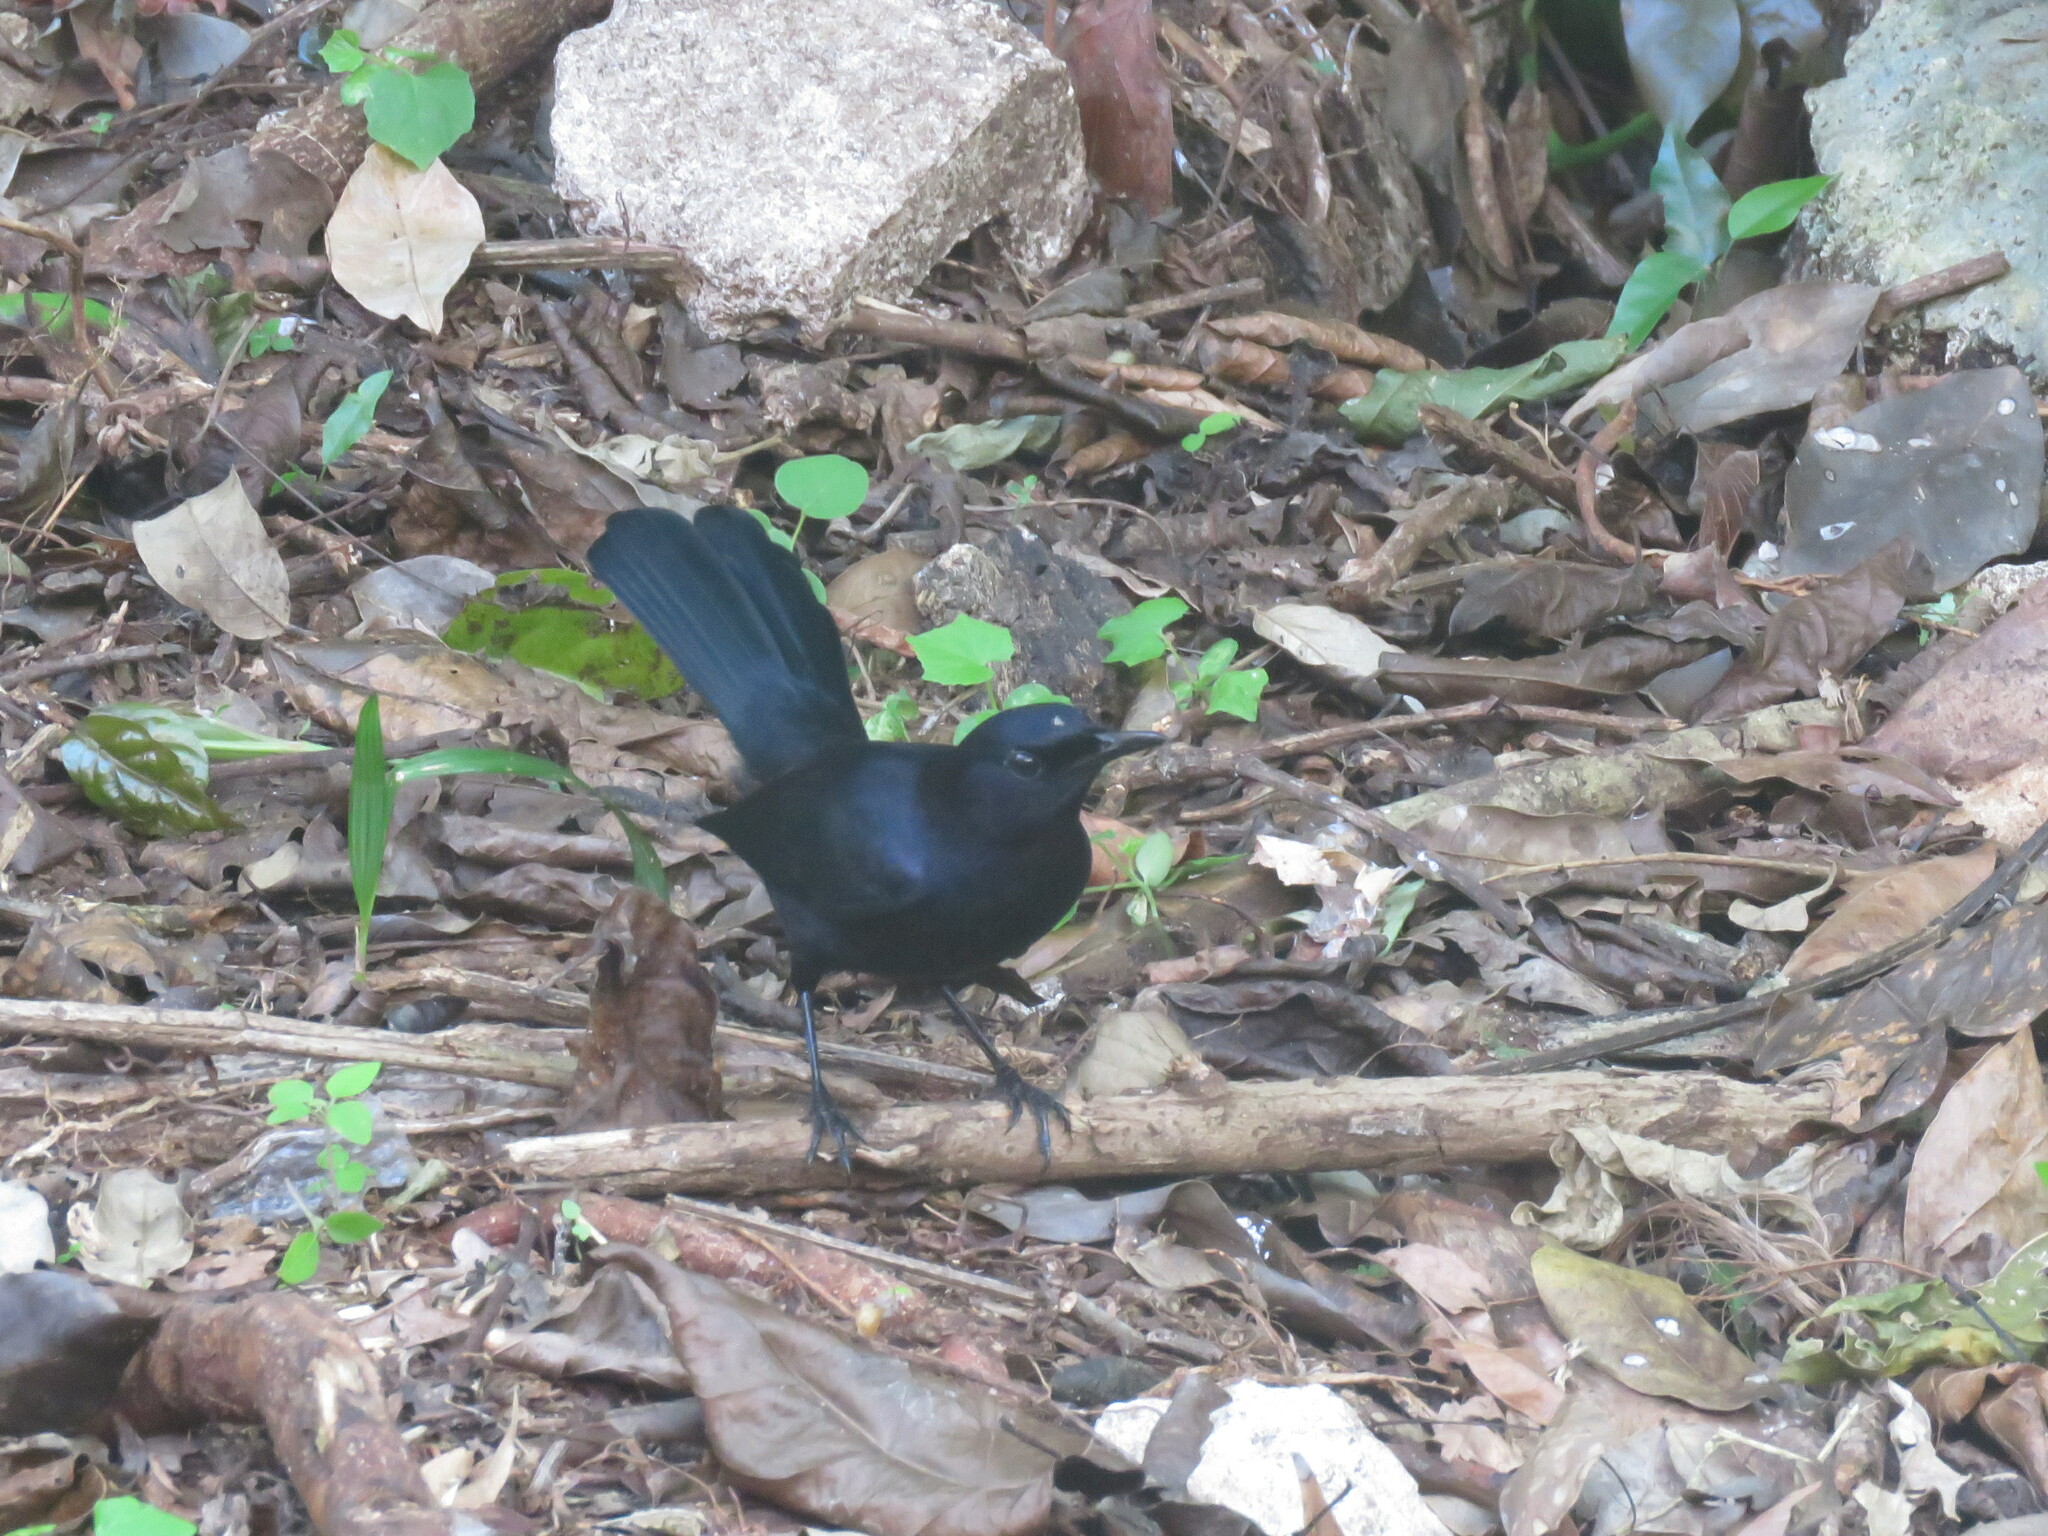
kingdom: Animalia
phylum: Chordata
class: Aves
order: Passeriformes
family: Mimidae
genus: Melanoptila
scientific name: Melanoptila glabrirostris
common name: Black catbird
